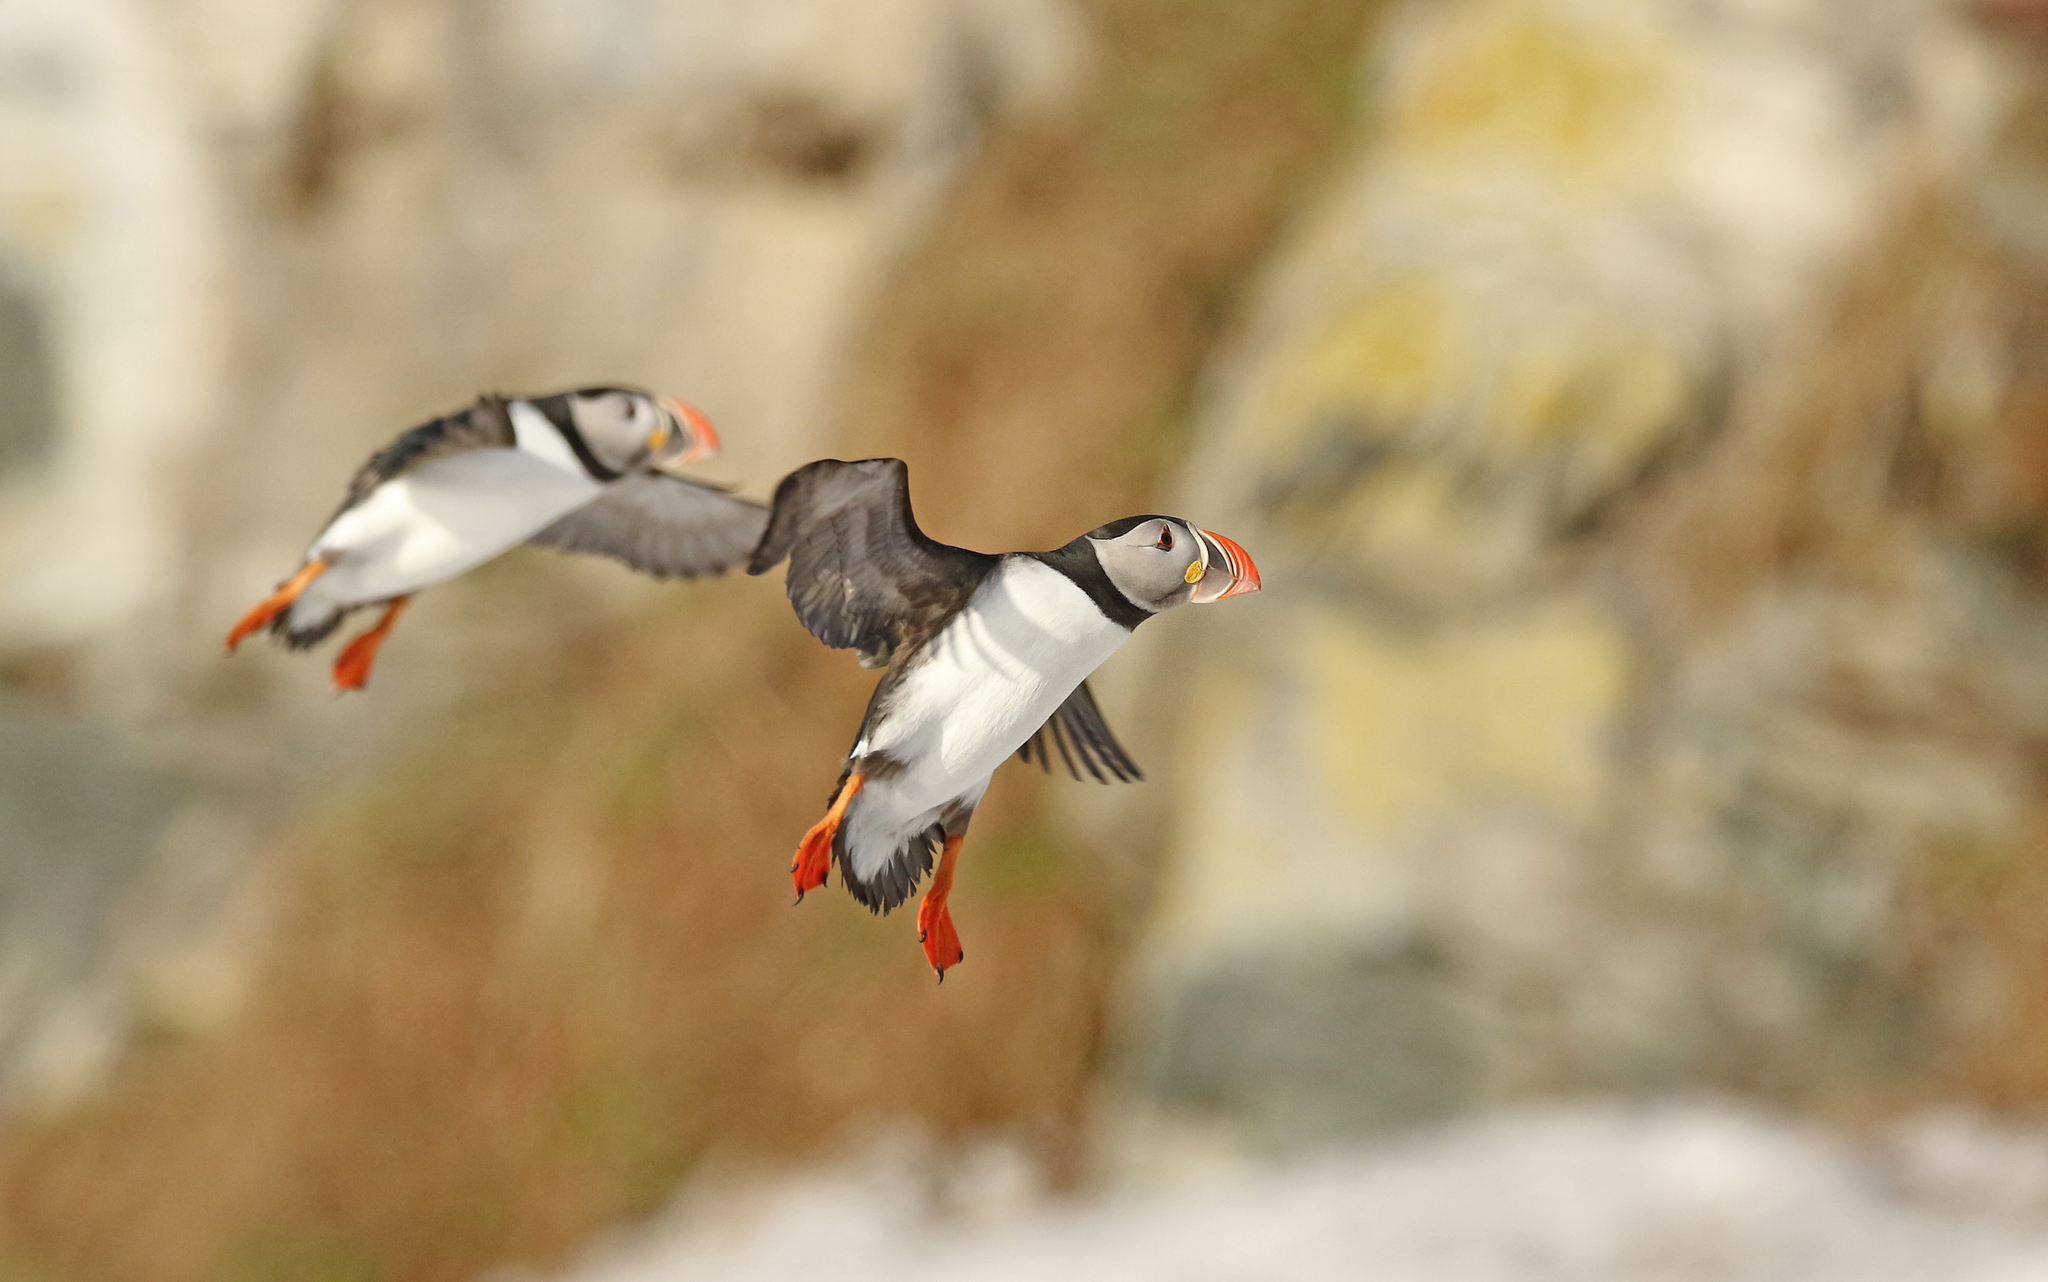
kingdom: Animalia
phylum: Chordata
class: Aves
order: Charadriiformes
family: Alcidae
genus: Fratercula
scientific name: Fratercula arctica
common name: Atlantic puffin
